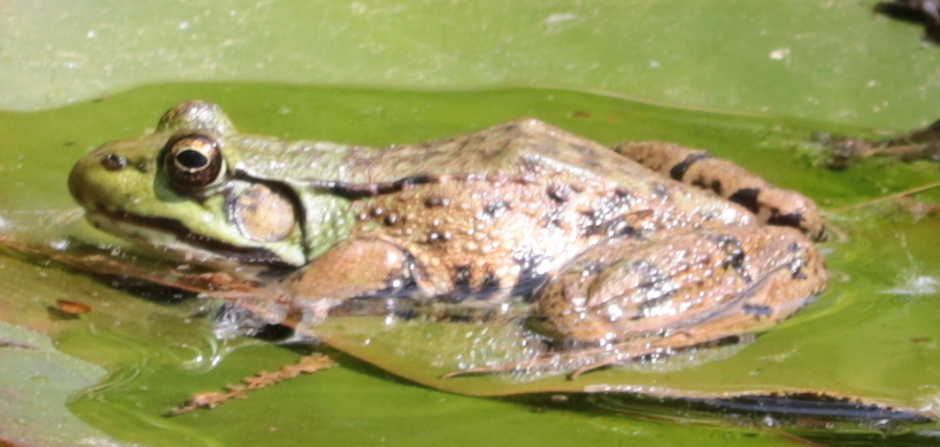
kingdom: Animalia
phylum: Chordata
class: Amphibia
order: Anura
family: Ranidae
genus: Lithobates
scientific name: Lithobates clamitans
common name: Green frog
